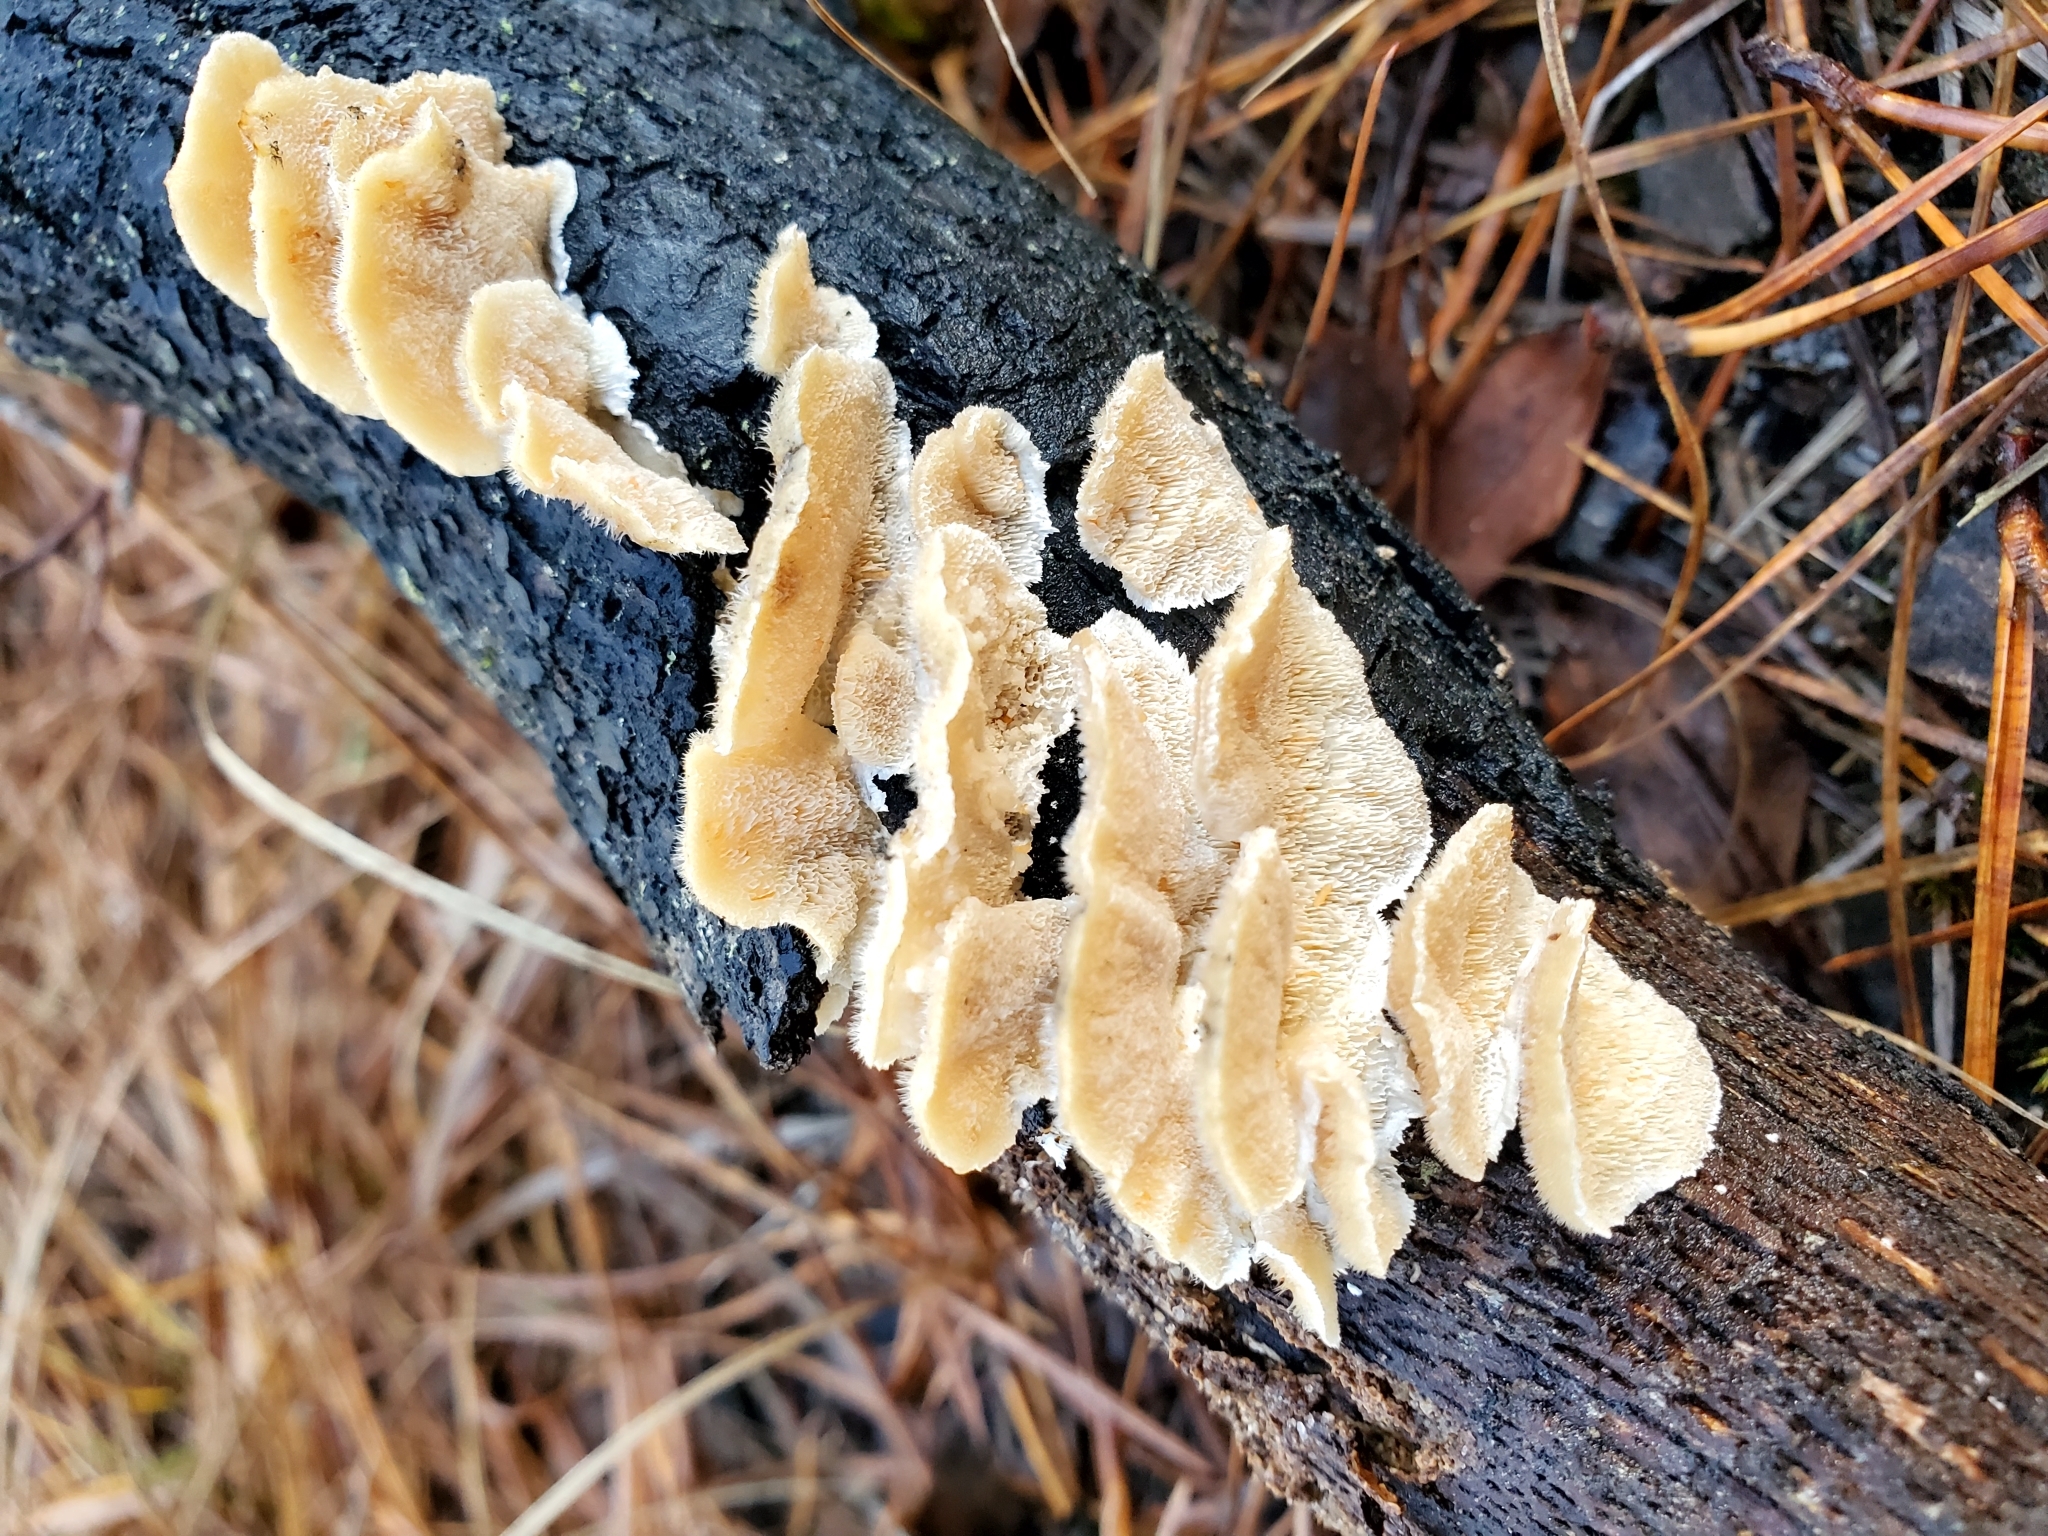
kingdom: Fungi
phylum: Basidiomycota
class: Agaricomycetes
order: Polyporales
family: Meruliaceae
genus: Irpiciporus
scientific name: Irpiciporus pachyodon
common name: Marshmallow polypore
